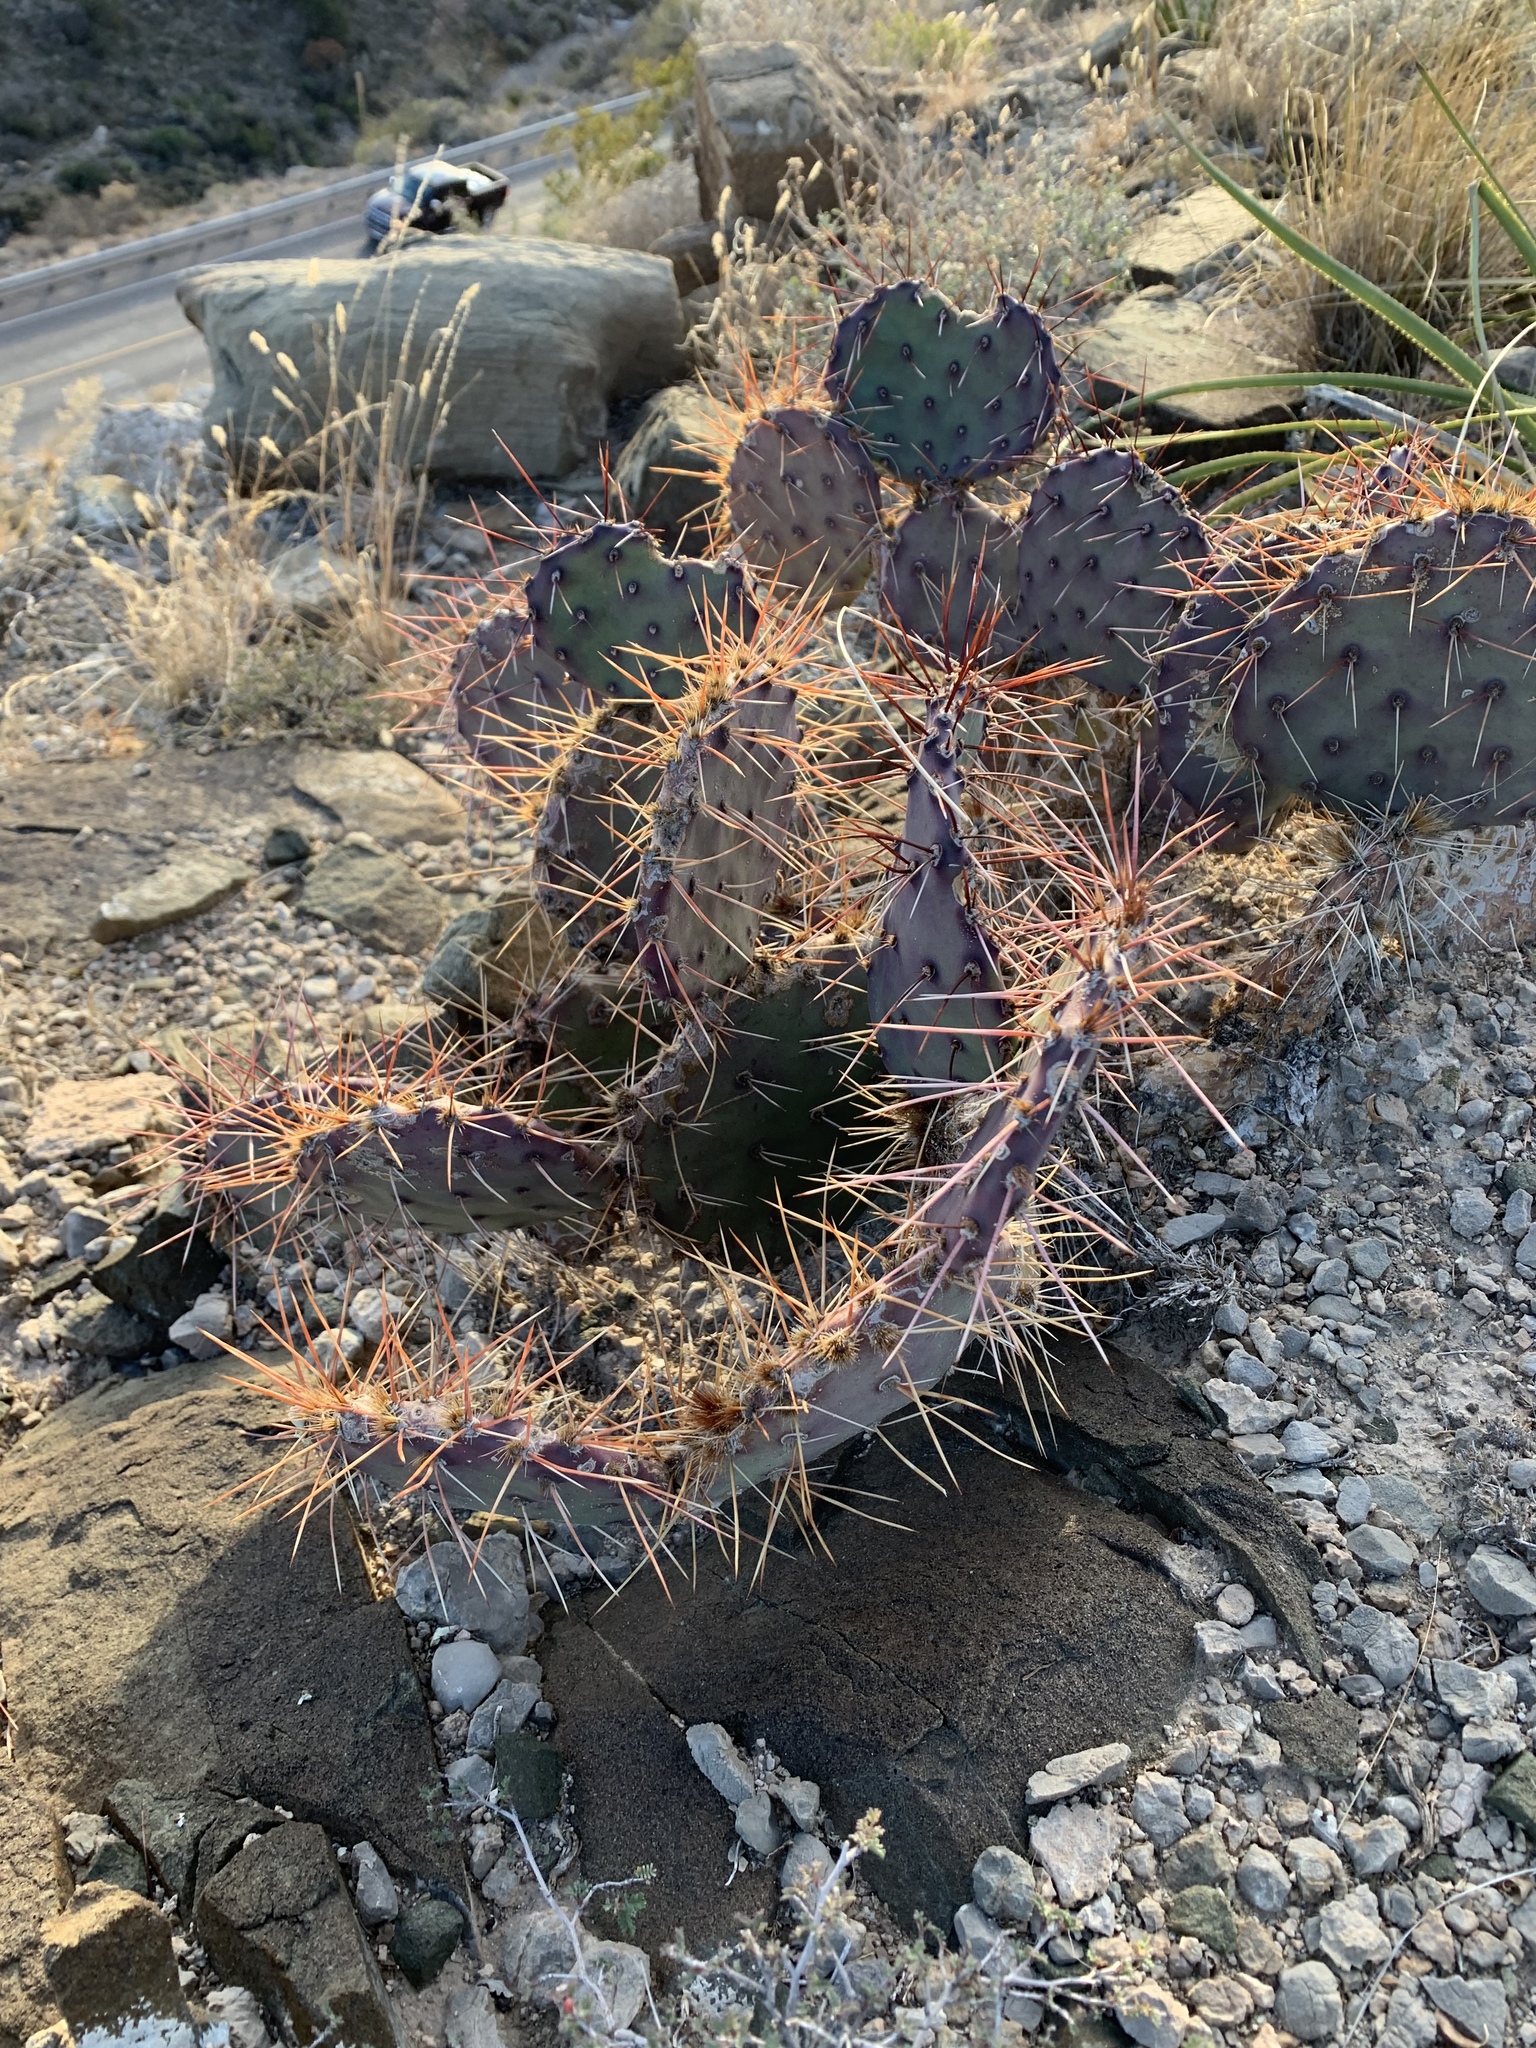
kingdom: Plantae
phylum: Tracheophyta
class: Magnoliopsida
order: Caryophyllales
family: Cactaceae
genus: Opuntia
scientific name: Opuntia macrocentra
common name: Purple prickly-pear
